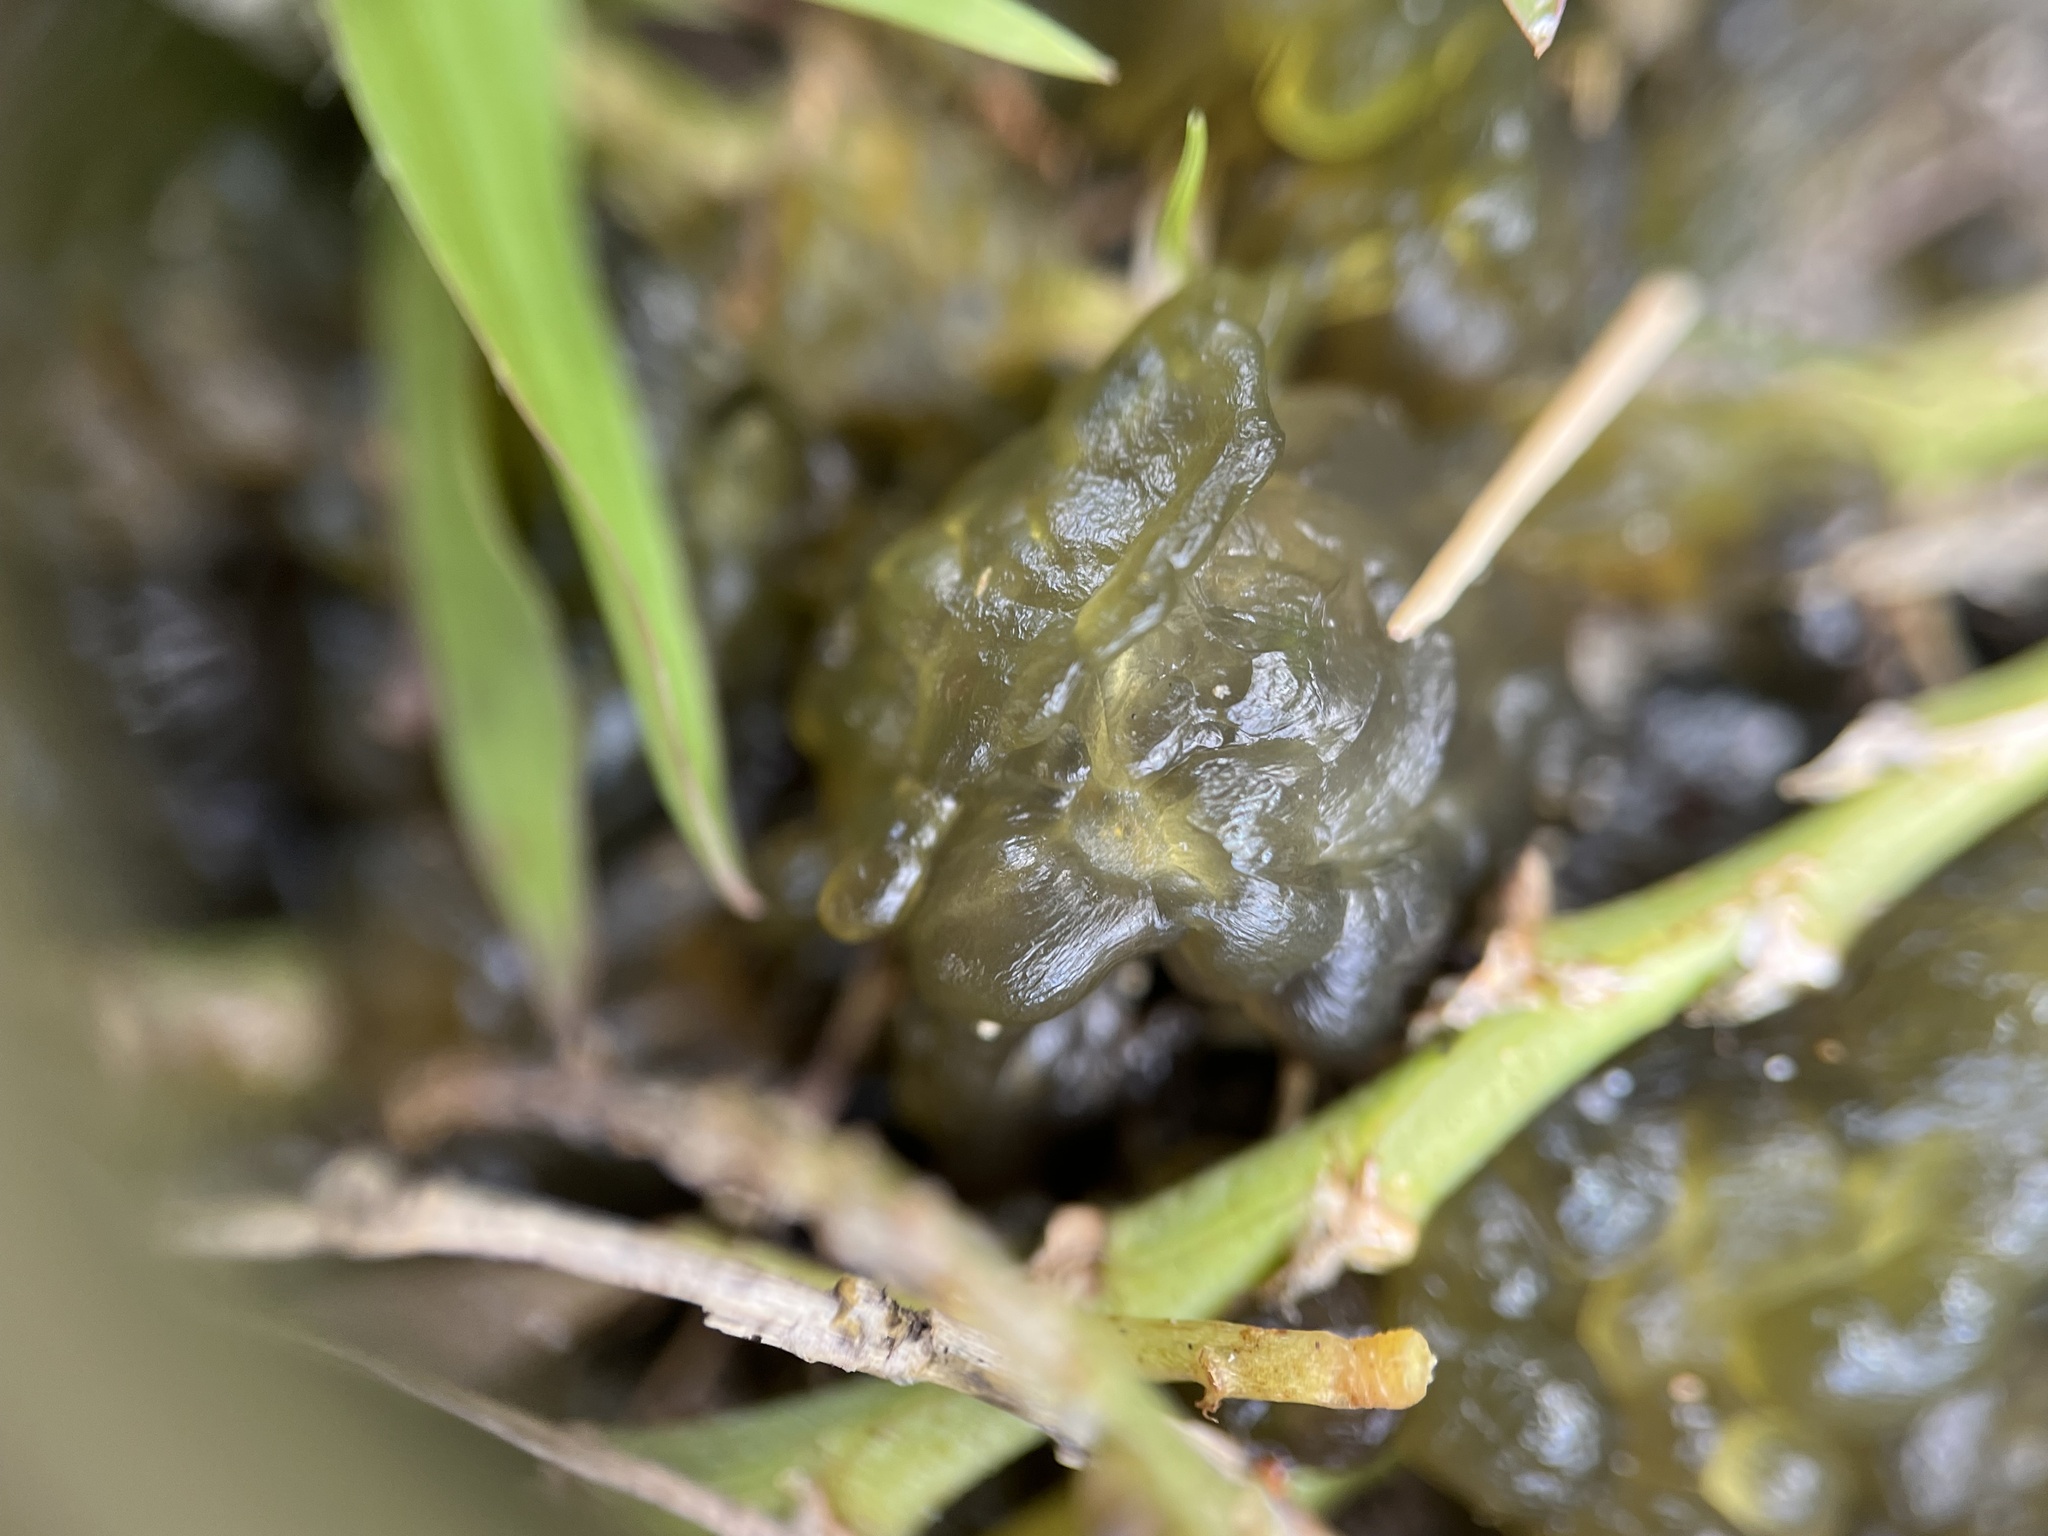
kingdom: Bacteria
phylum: Cyanobacteria
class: Cyanobacteriia
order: Cyanobacteriales
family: Nostocaceae
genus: Nostoc
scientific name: Nostoc commune
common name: Star jelly
